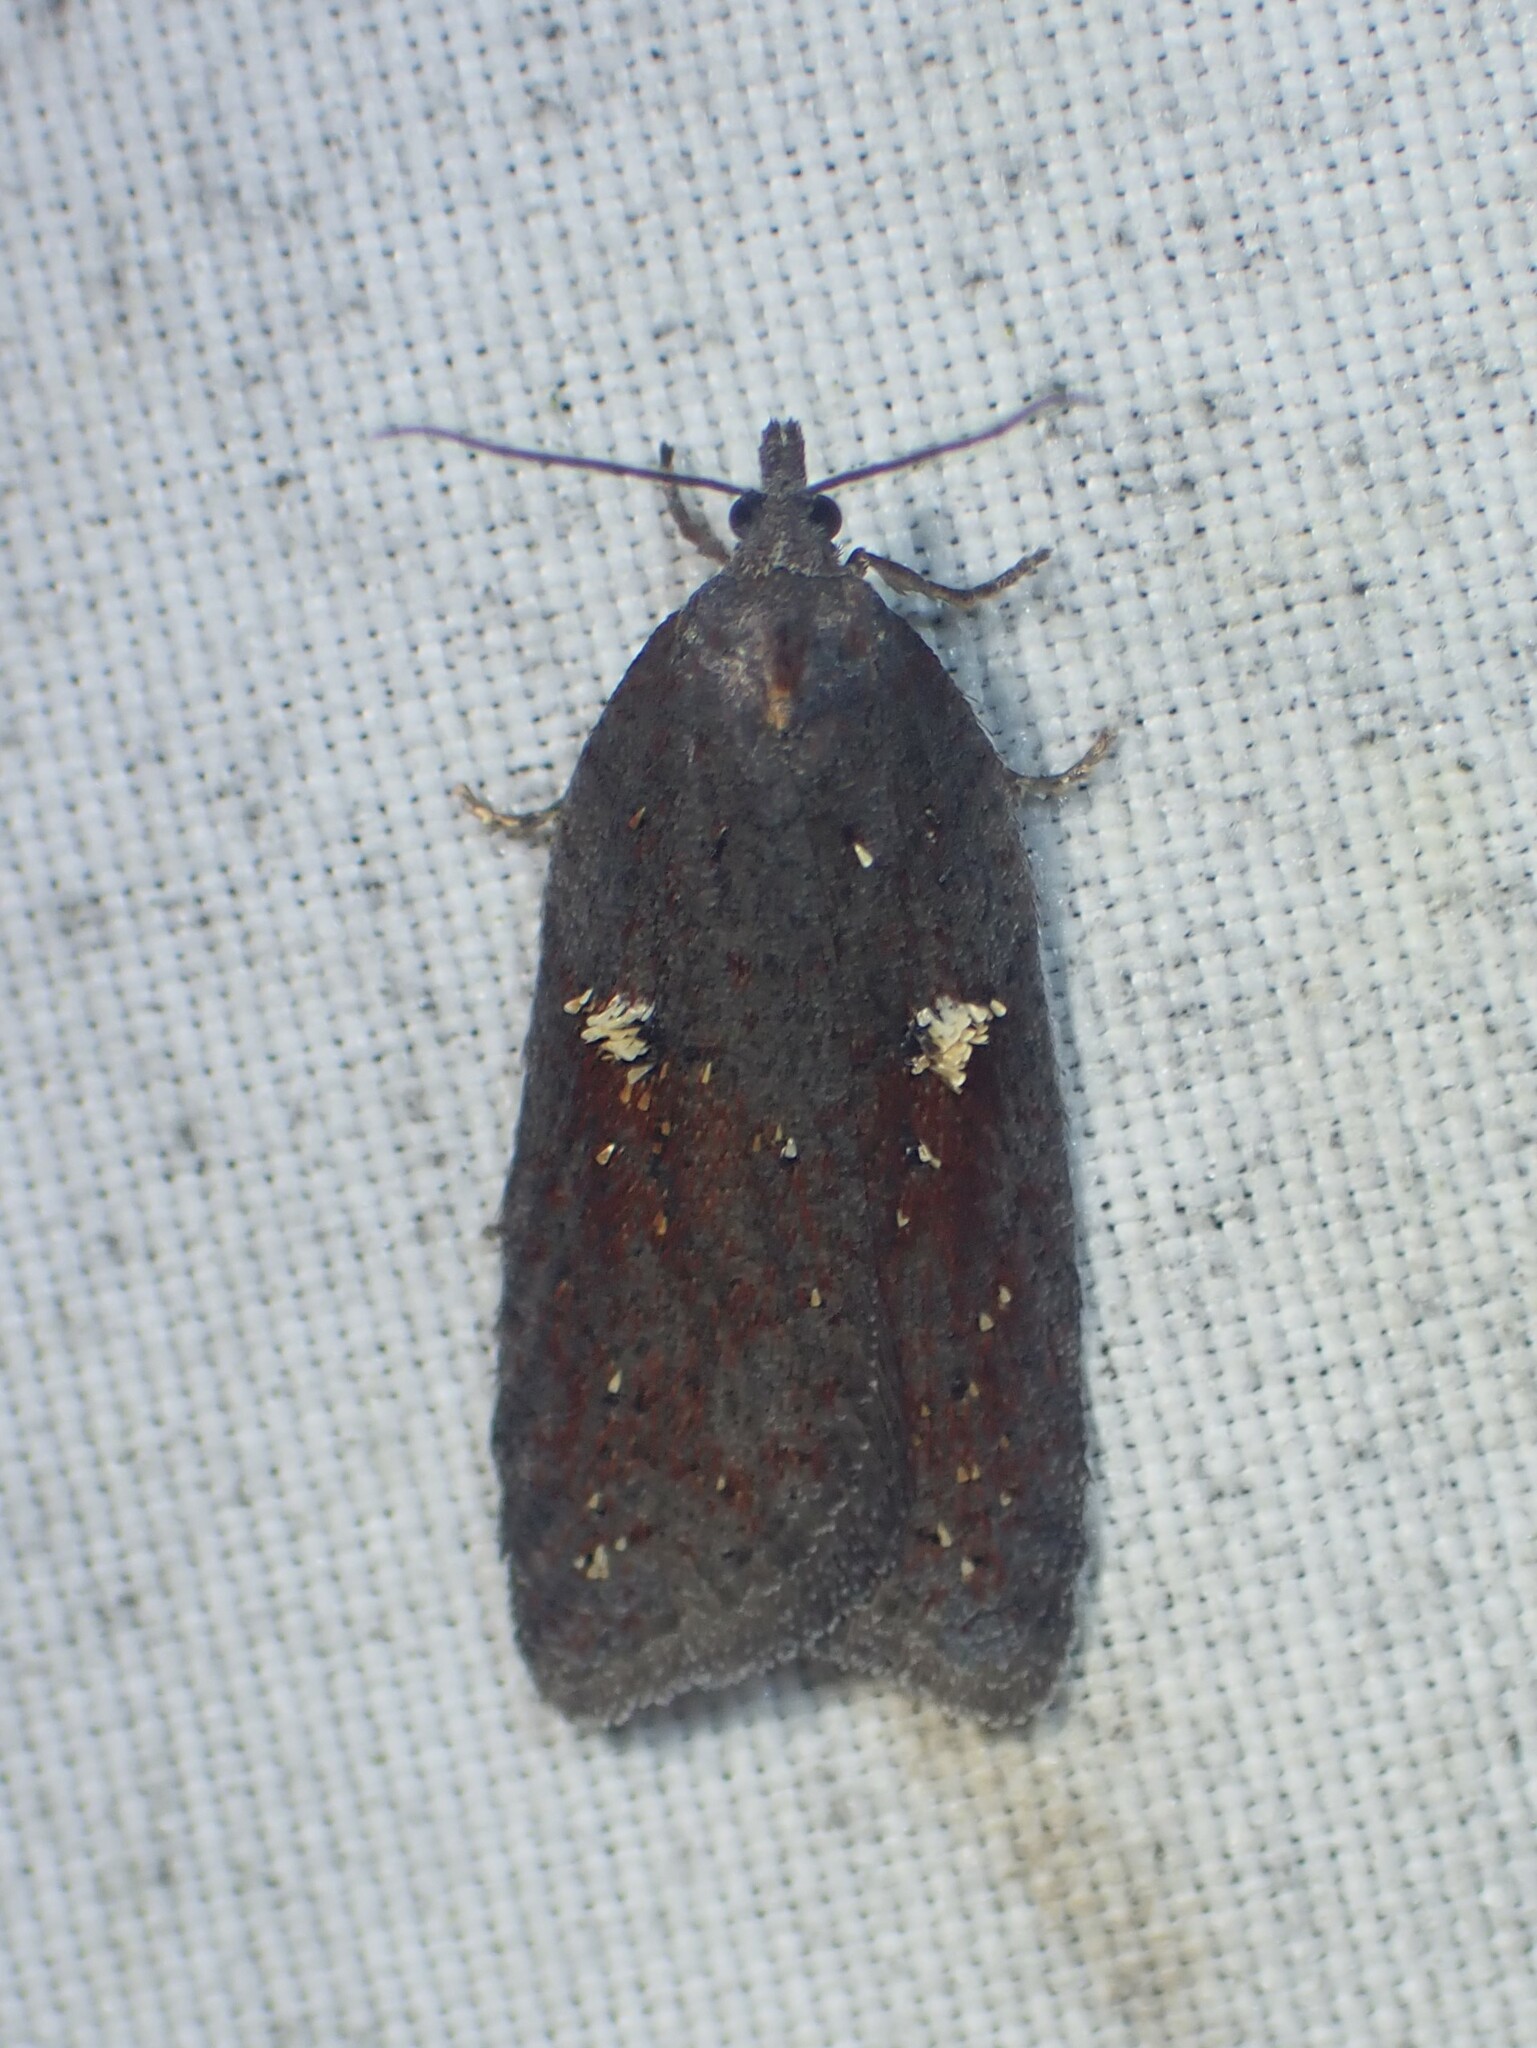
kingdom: Animalia
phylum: Arthropoda
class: Insecta
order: Lepidoptera
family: Tortricidae
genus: Acleris
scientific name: Acleris bowmanana
